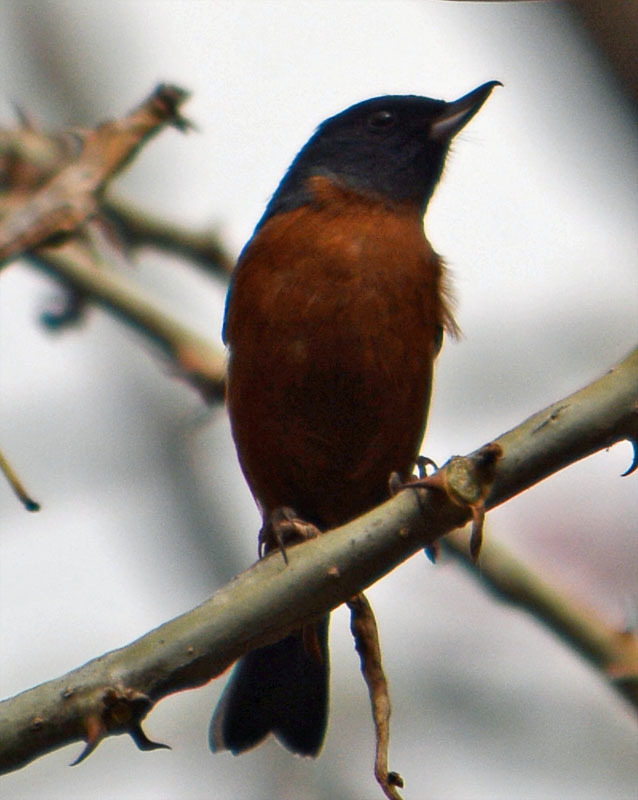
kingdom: Animalia
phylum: Chordata
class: Aves
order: Passeriformes
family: Thraupidae
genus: Diglossa
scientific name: Diglossa baritula
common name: Cinnamon-bellied flowerpiercer
